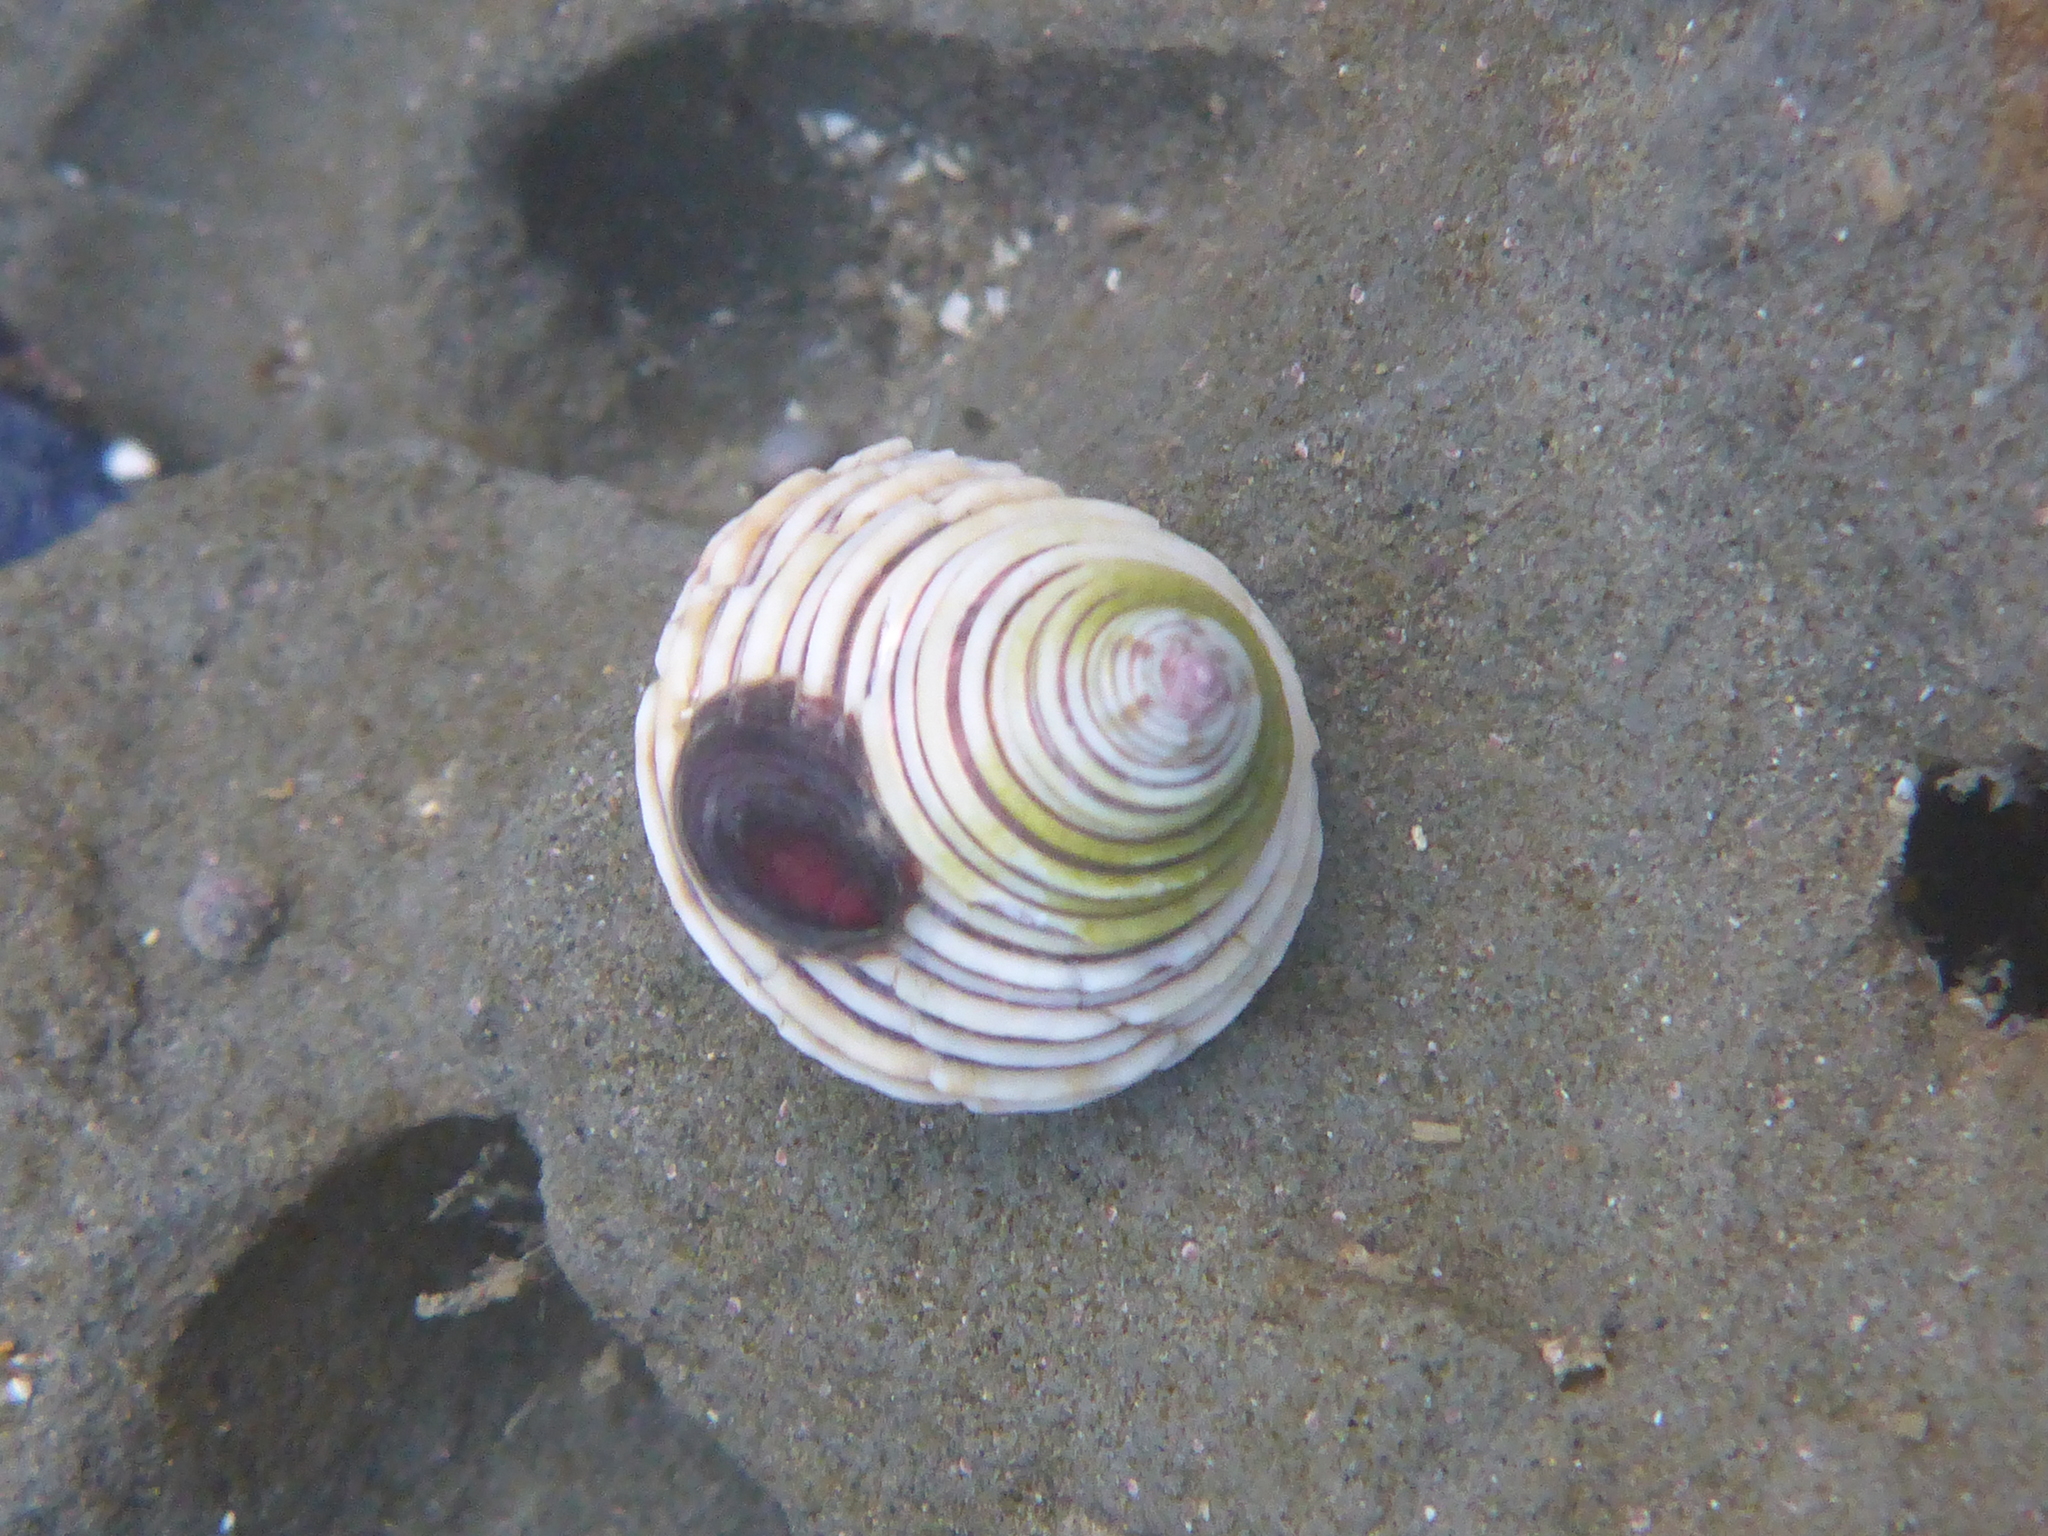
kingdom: Animalia
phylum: Mollusca
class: Gastropoda
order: Trochida
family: Calliostomatidae
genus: Calliostoma
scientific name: Calliostoma canaliculatum
